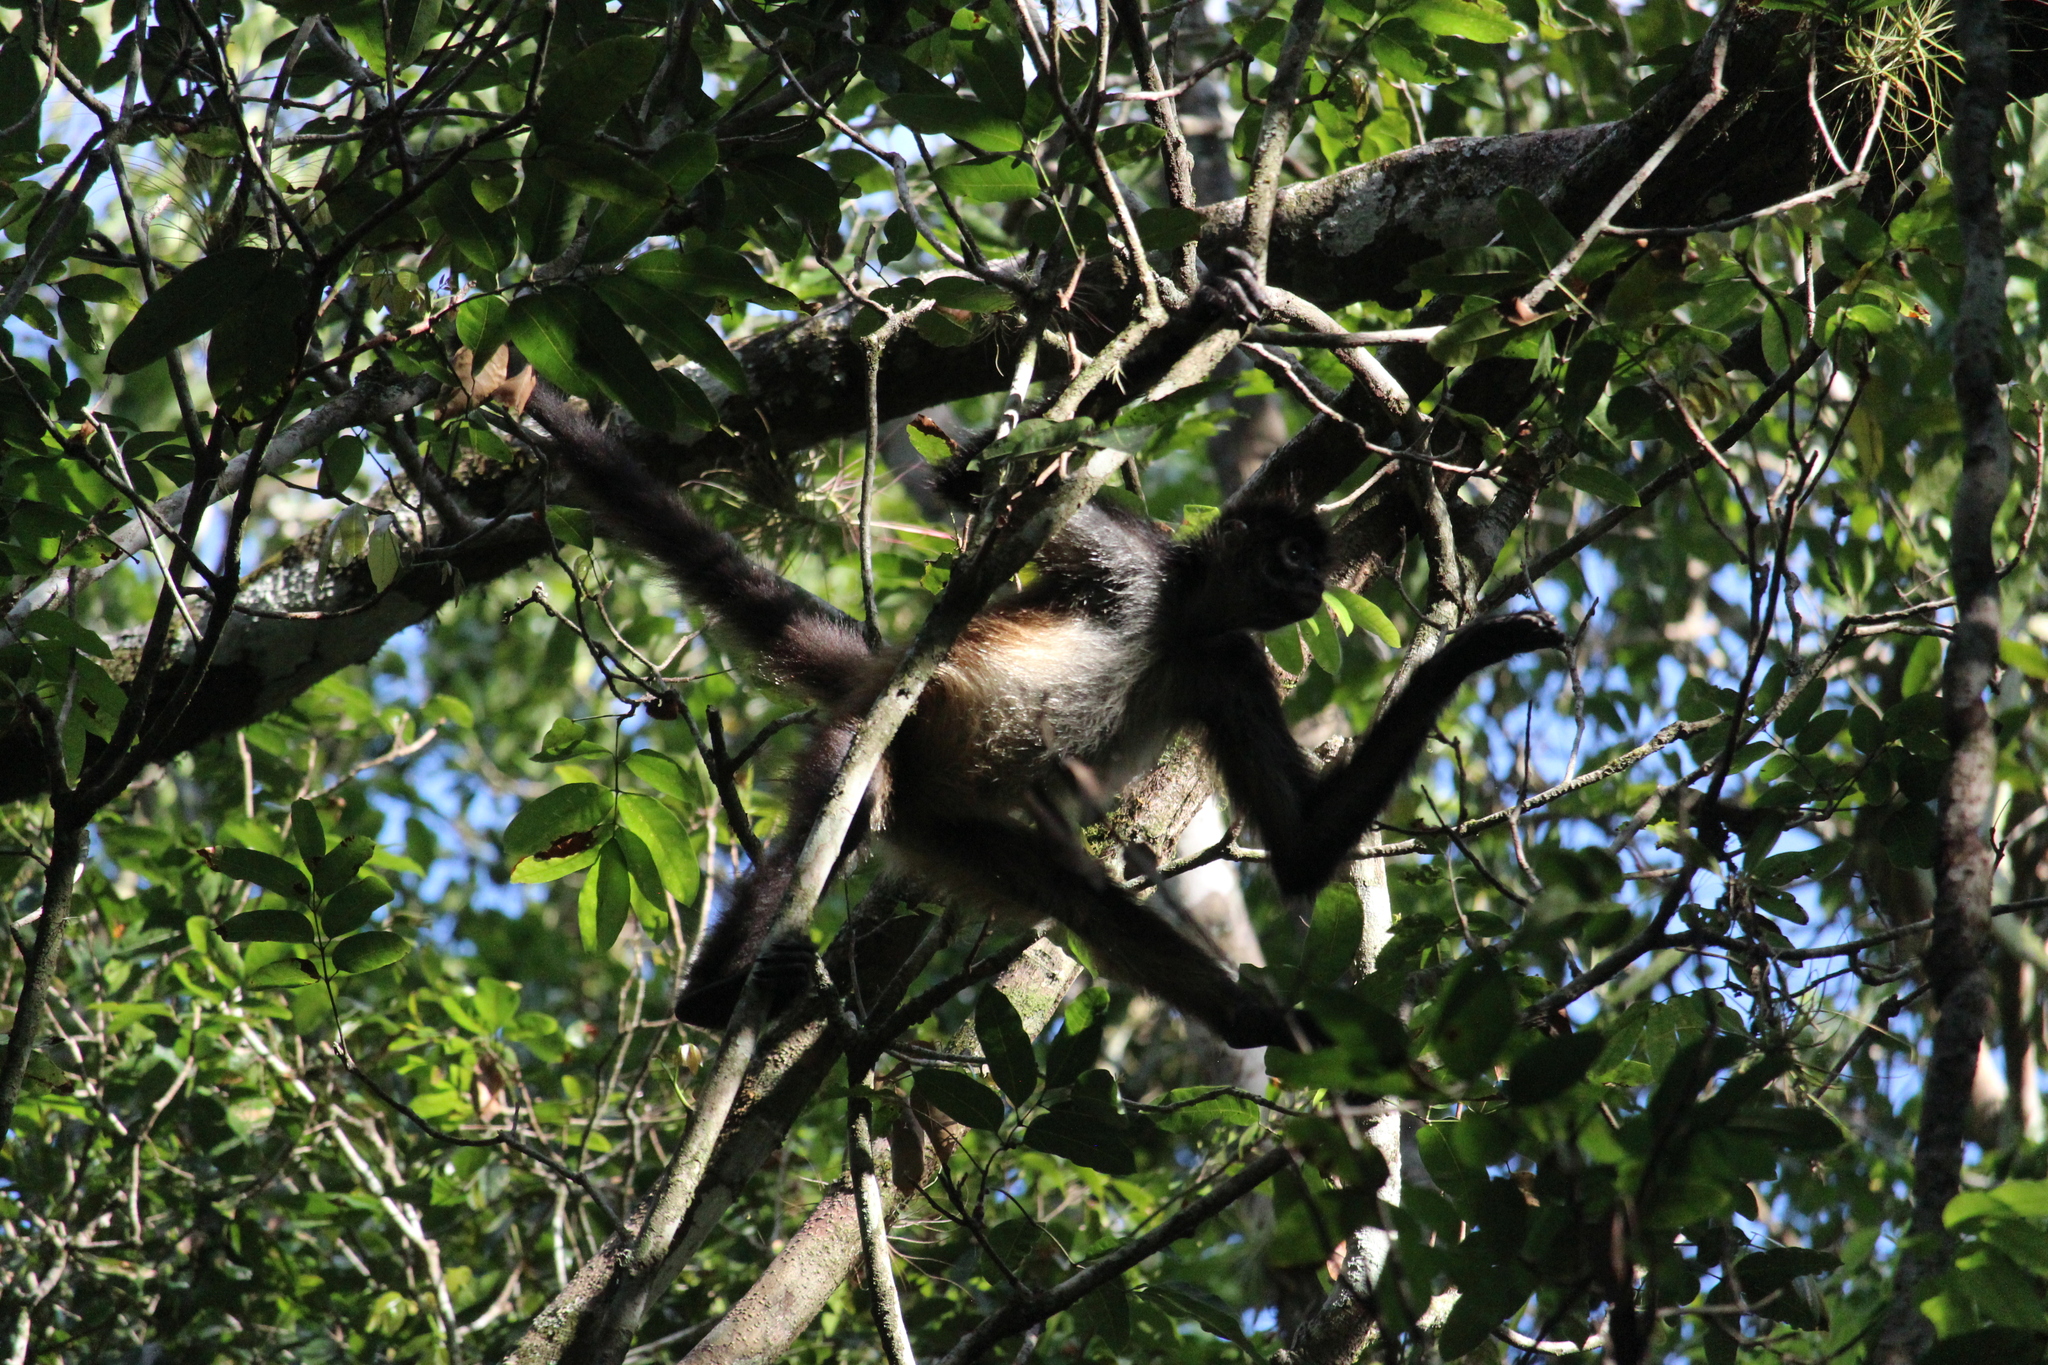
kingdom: Animalia
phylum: Chordata
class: Mammalia
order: Primates
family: Atelidae
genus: Ateles
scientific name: Ateles geoffroyi
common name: Black-handed spider monkey
